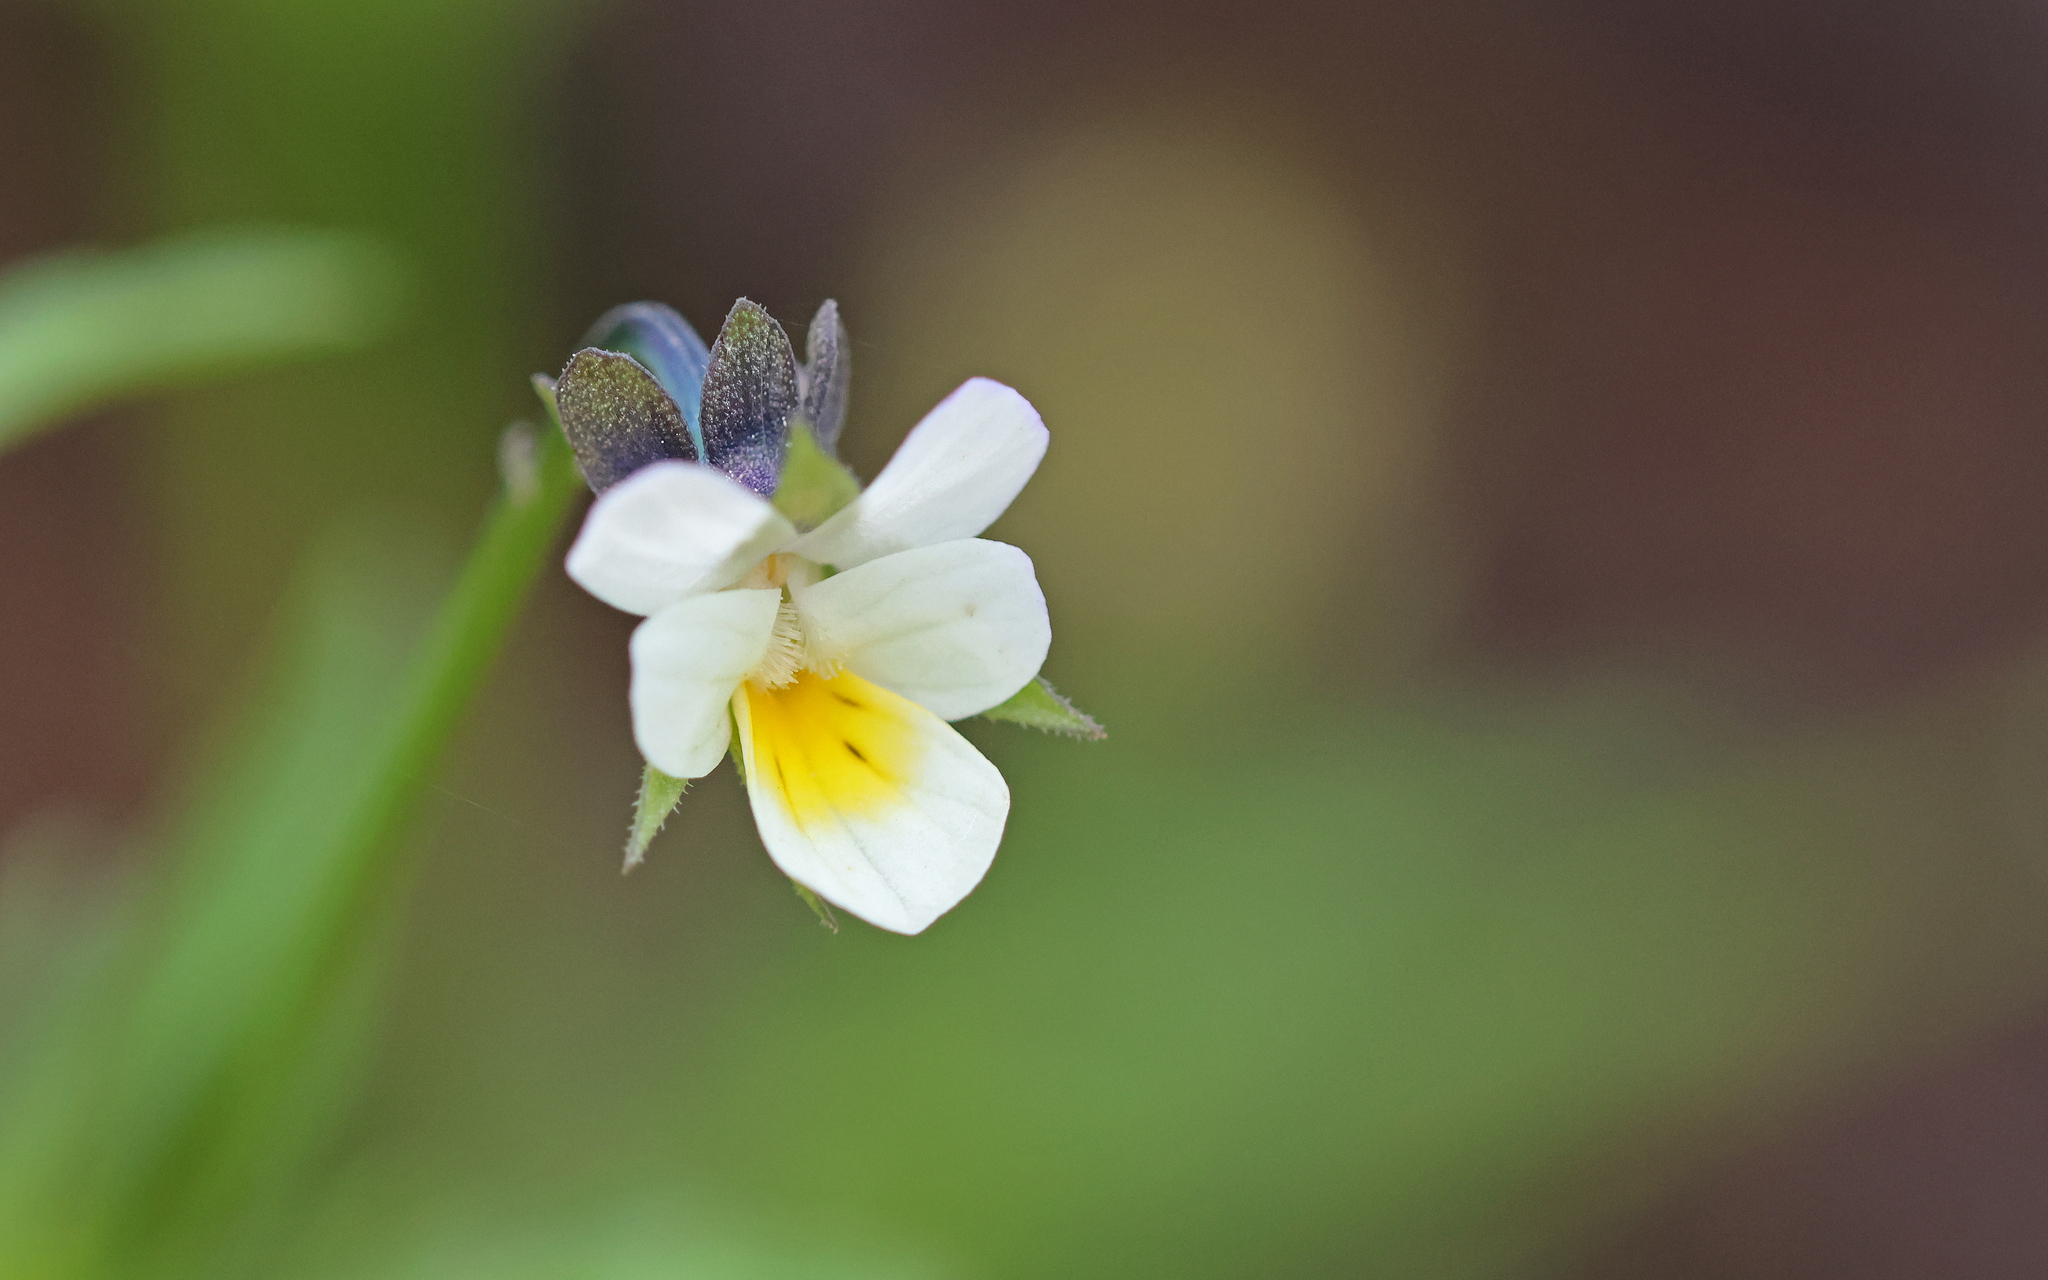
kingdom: Plantae
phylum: Tracheophyta
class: Magnoliopsida
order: Malpighiales
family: Violaceae
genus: Viola
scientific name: Viola arvensis
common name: Field pansy
